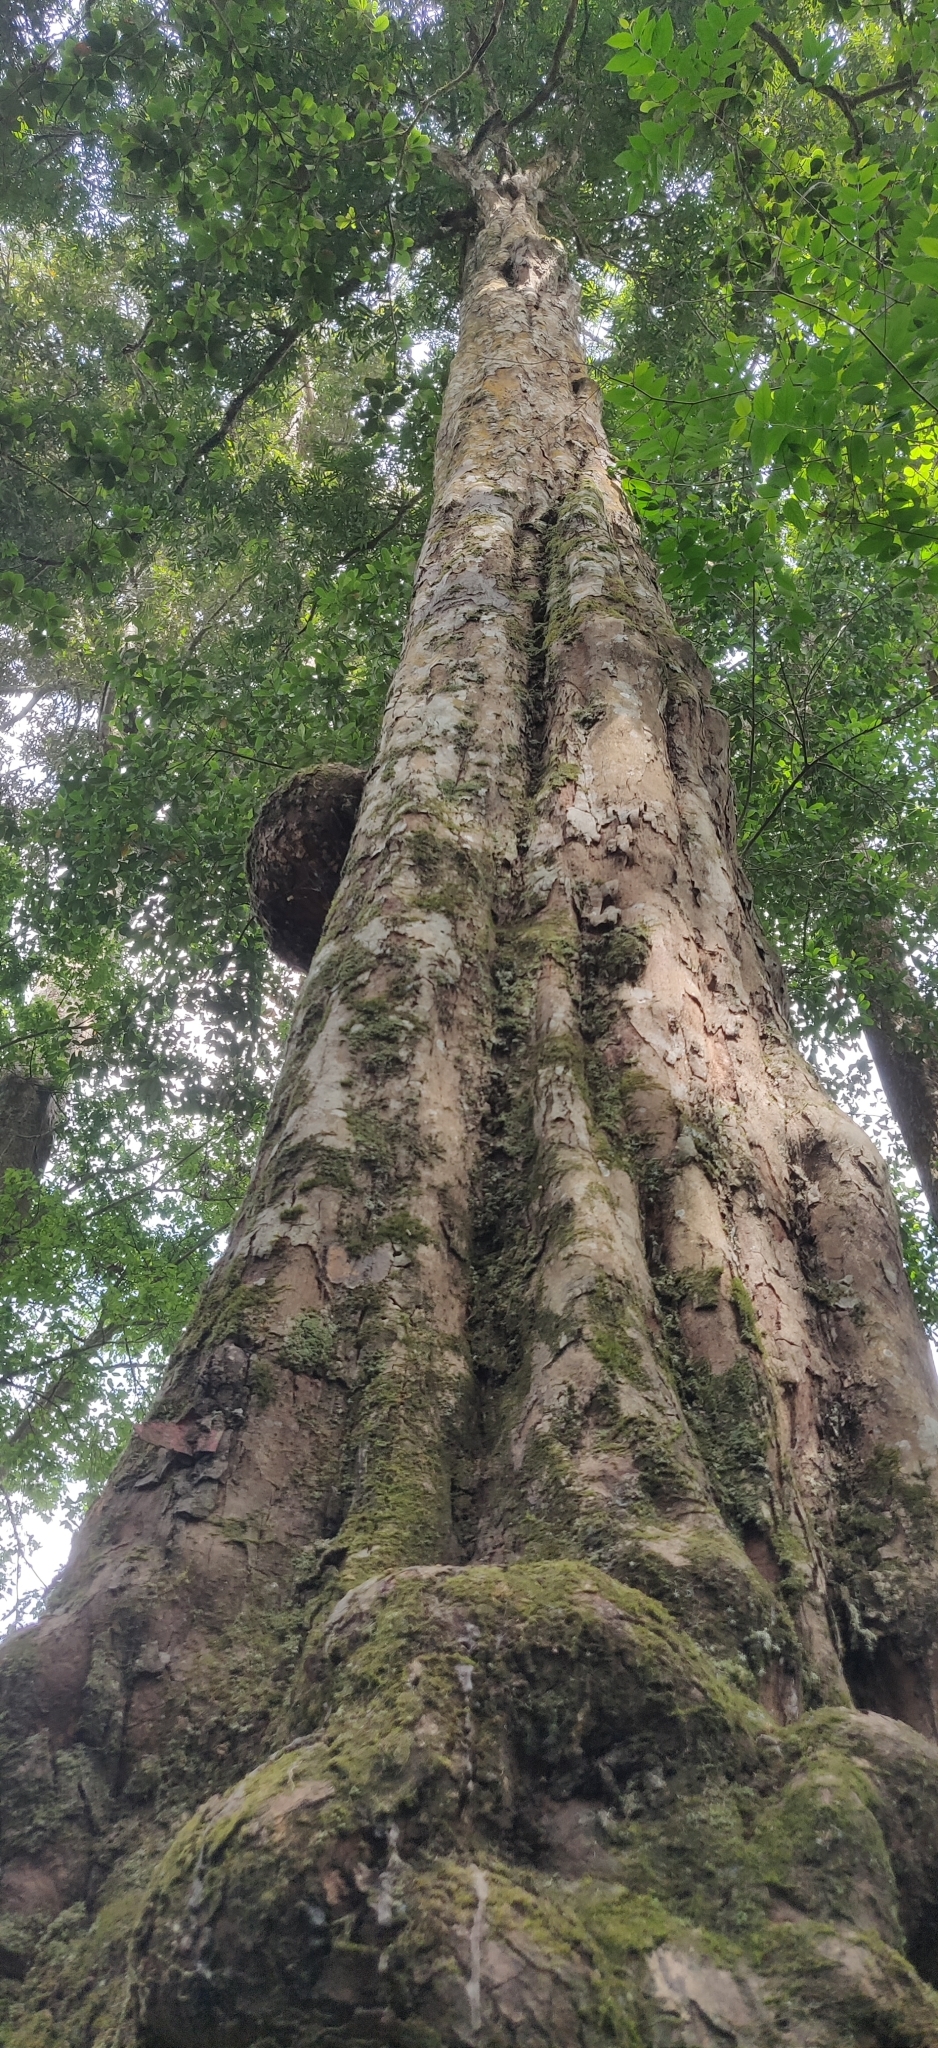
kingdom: Plantae
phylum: Tracheophyta
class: Magnoliopsida
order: Malpighiales
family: Calophyllaceae
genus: Mesua
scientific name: Mesua ferrea
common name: Mesua
